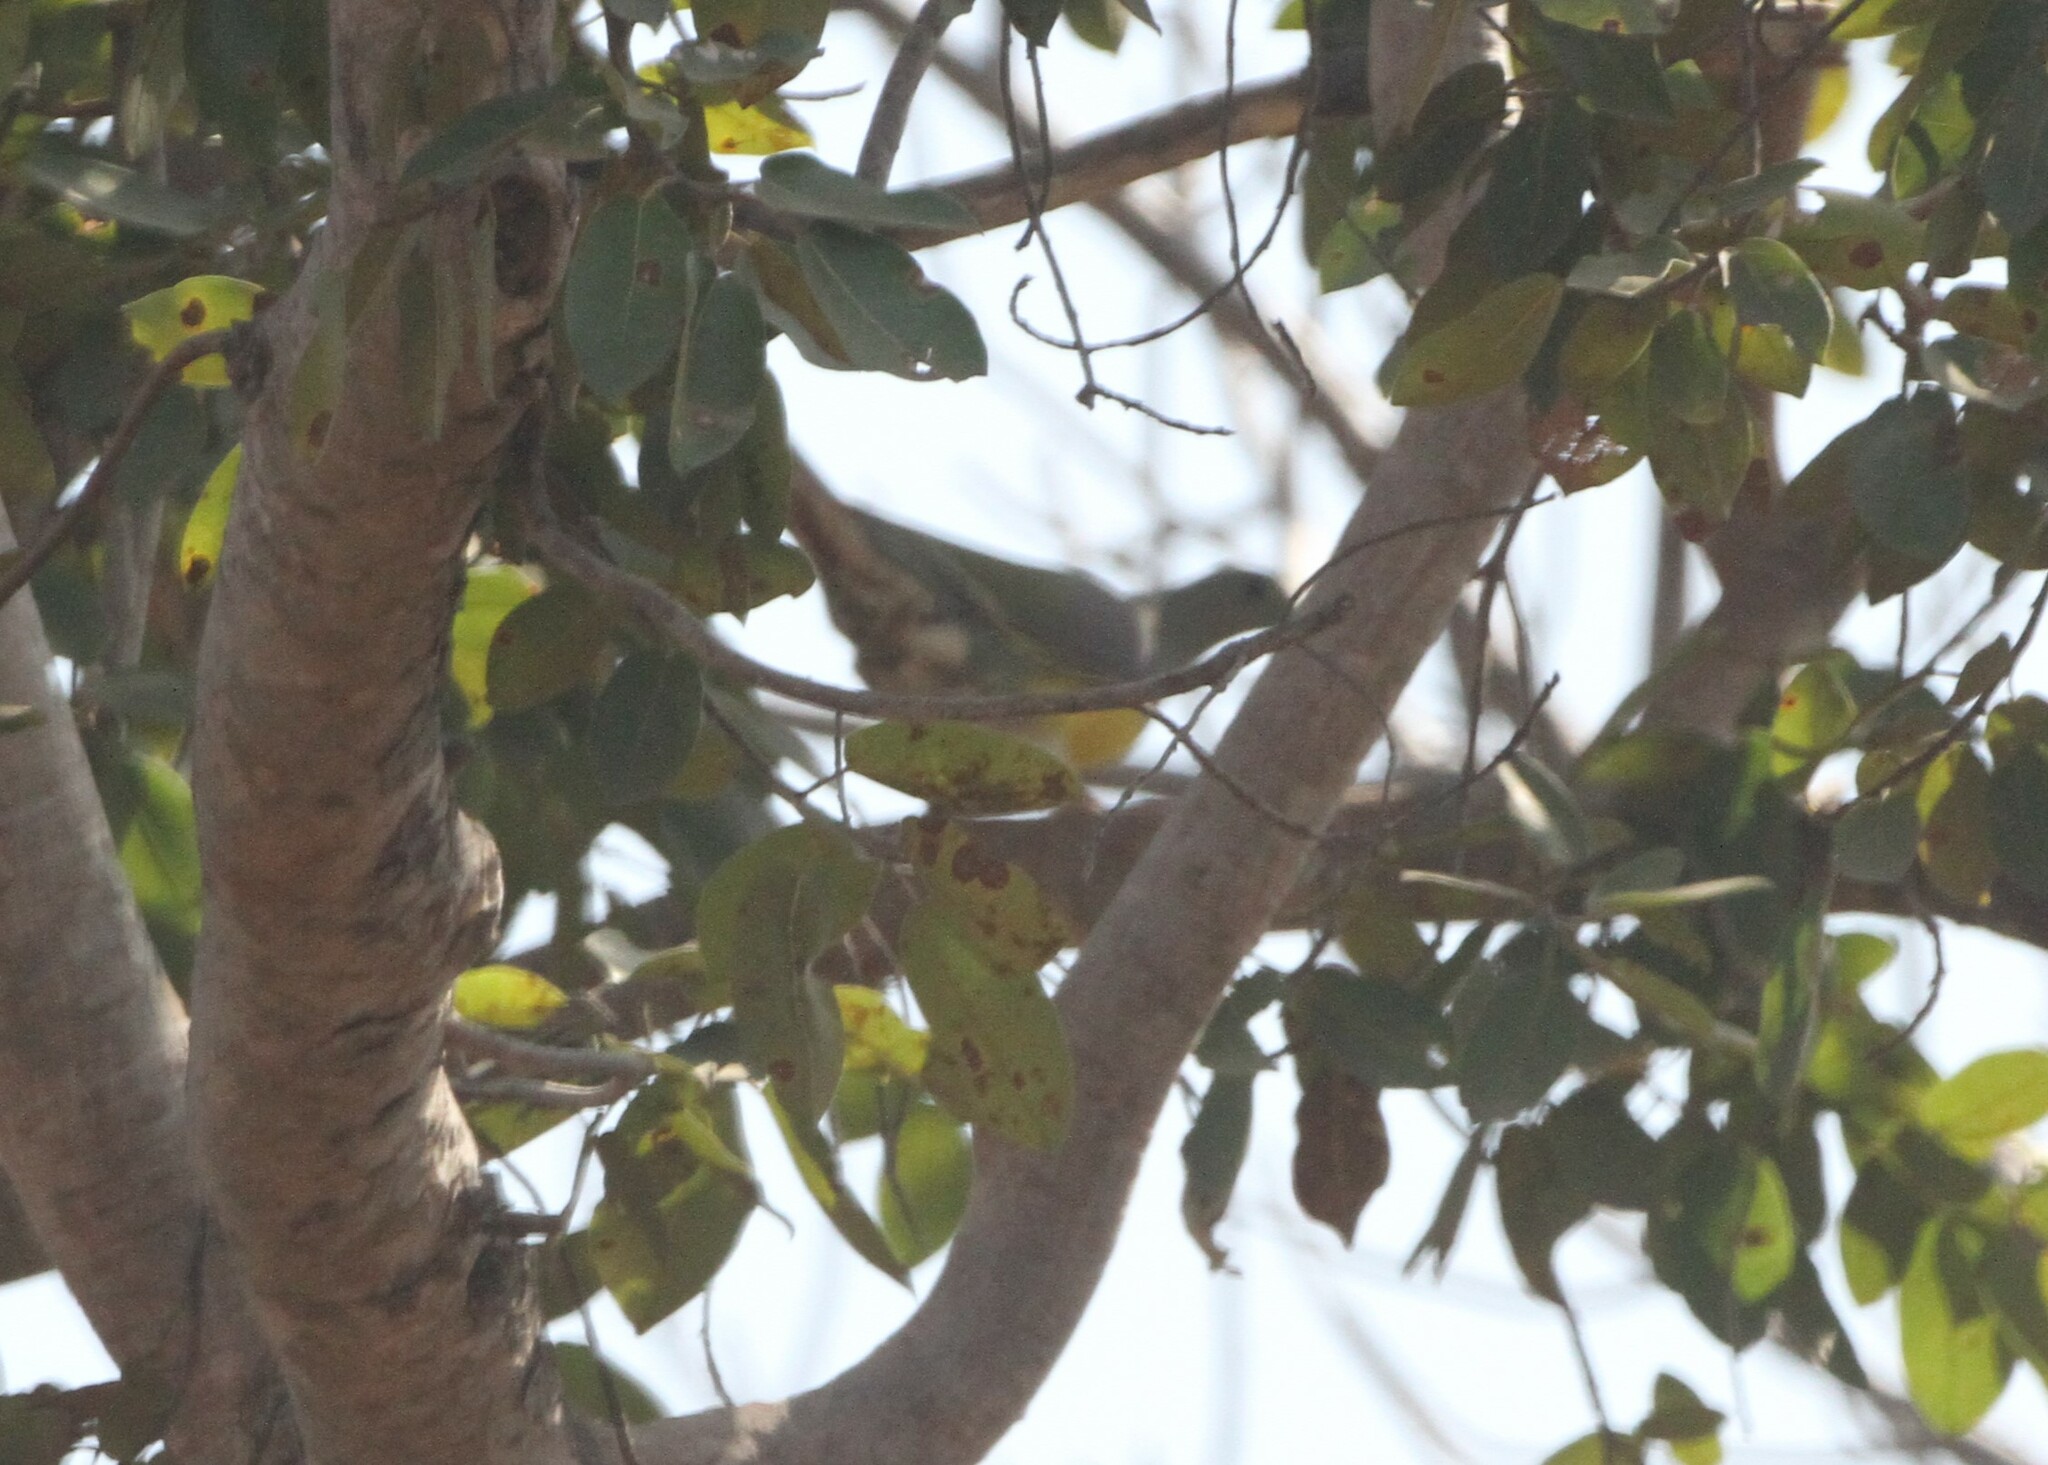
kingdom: Animalia
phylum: Chordata
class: Aves
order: Columbiformes
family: Columbidae
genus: Treron
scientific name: Treron waalia
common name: Bruce's green pigeon
